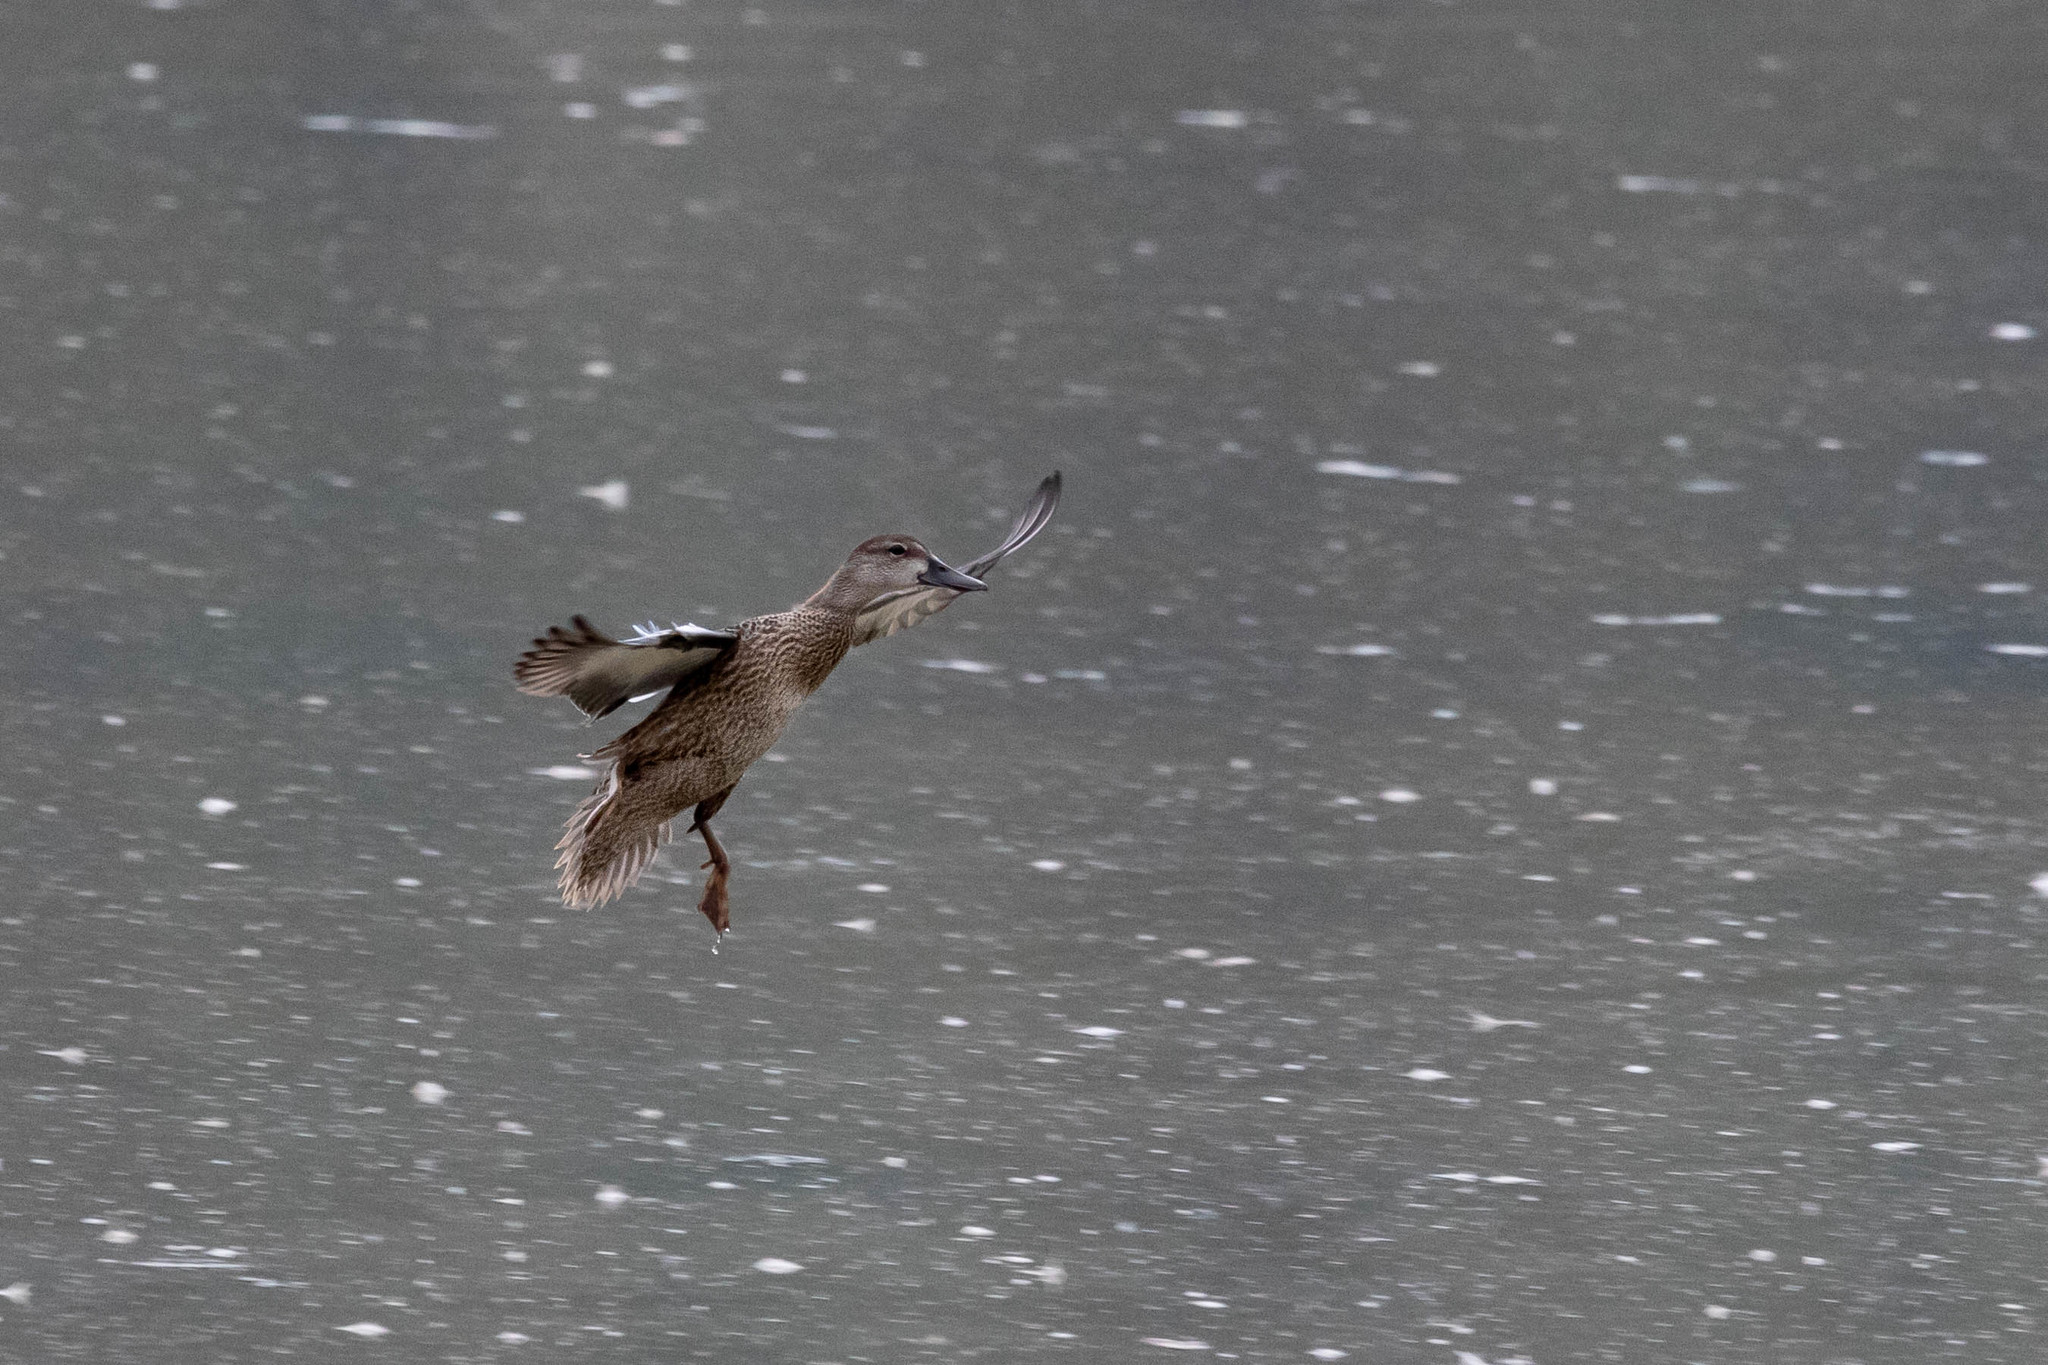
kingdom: Animalia
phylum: Chordata
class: Aves
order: Anseriformes
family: Anatidae
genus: Spatula
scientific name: Spatula discors
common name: Blue-winged teal
